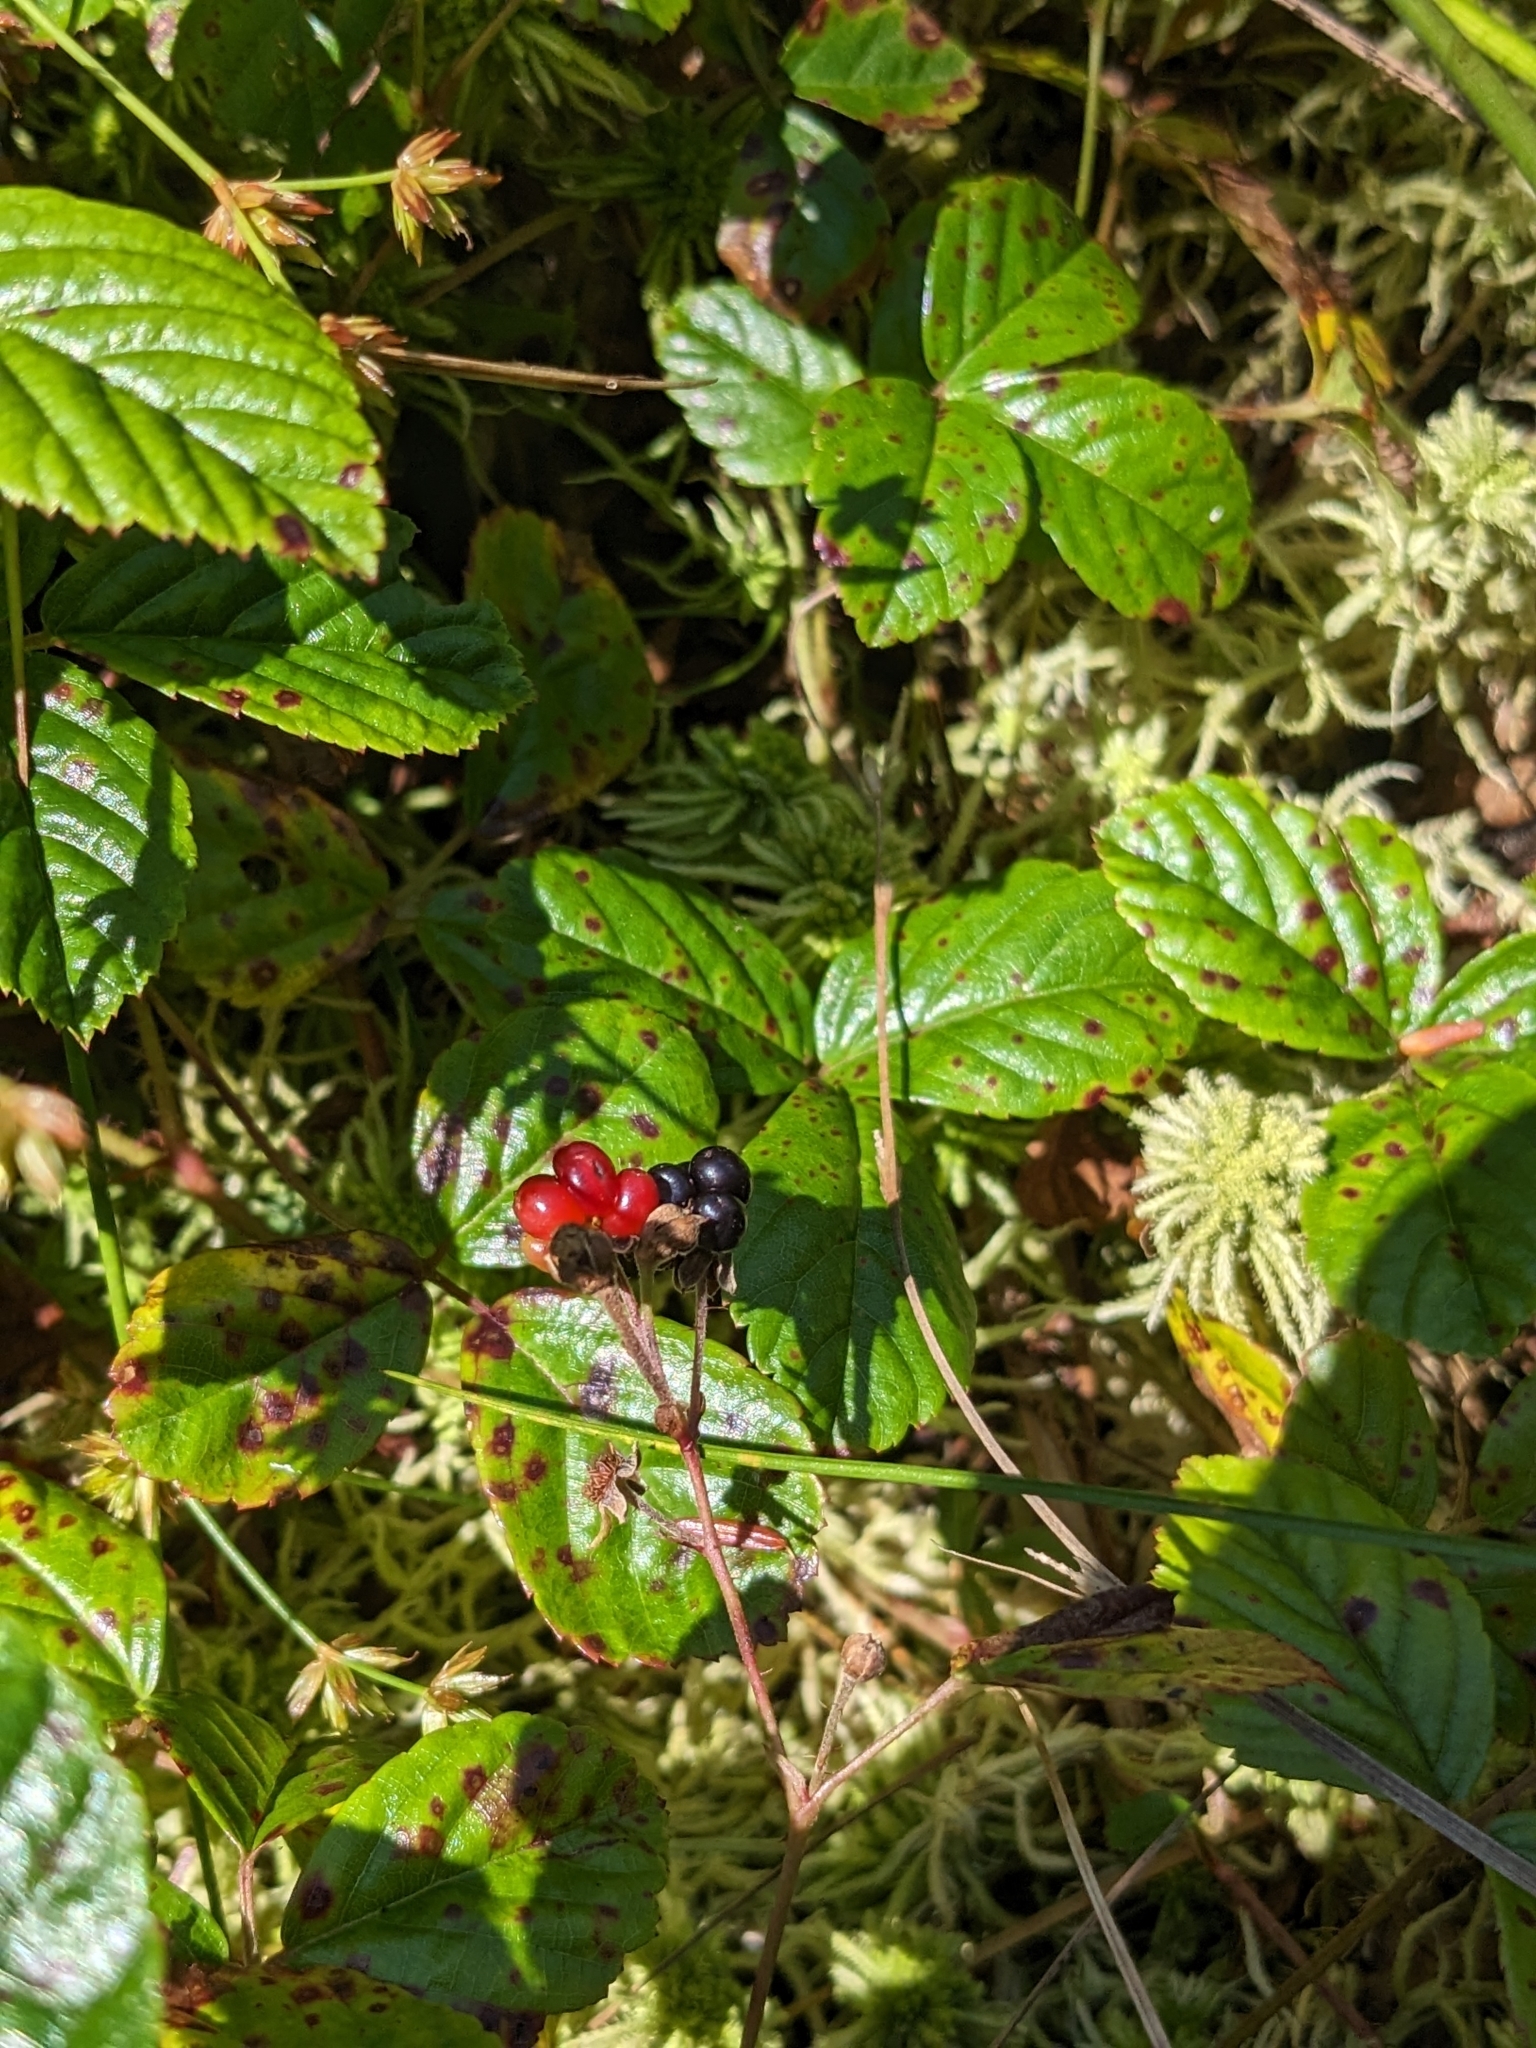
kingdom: Plantae
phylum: Tracheophyta
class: Magnoliopsida
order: Rosales
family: Rosaceae
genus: Rubus
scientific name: Rubus hispidus
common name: Running blackberry
